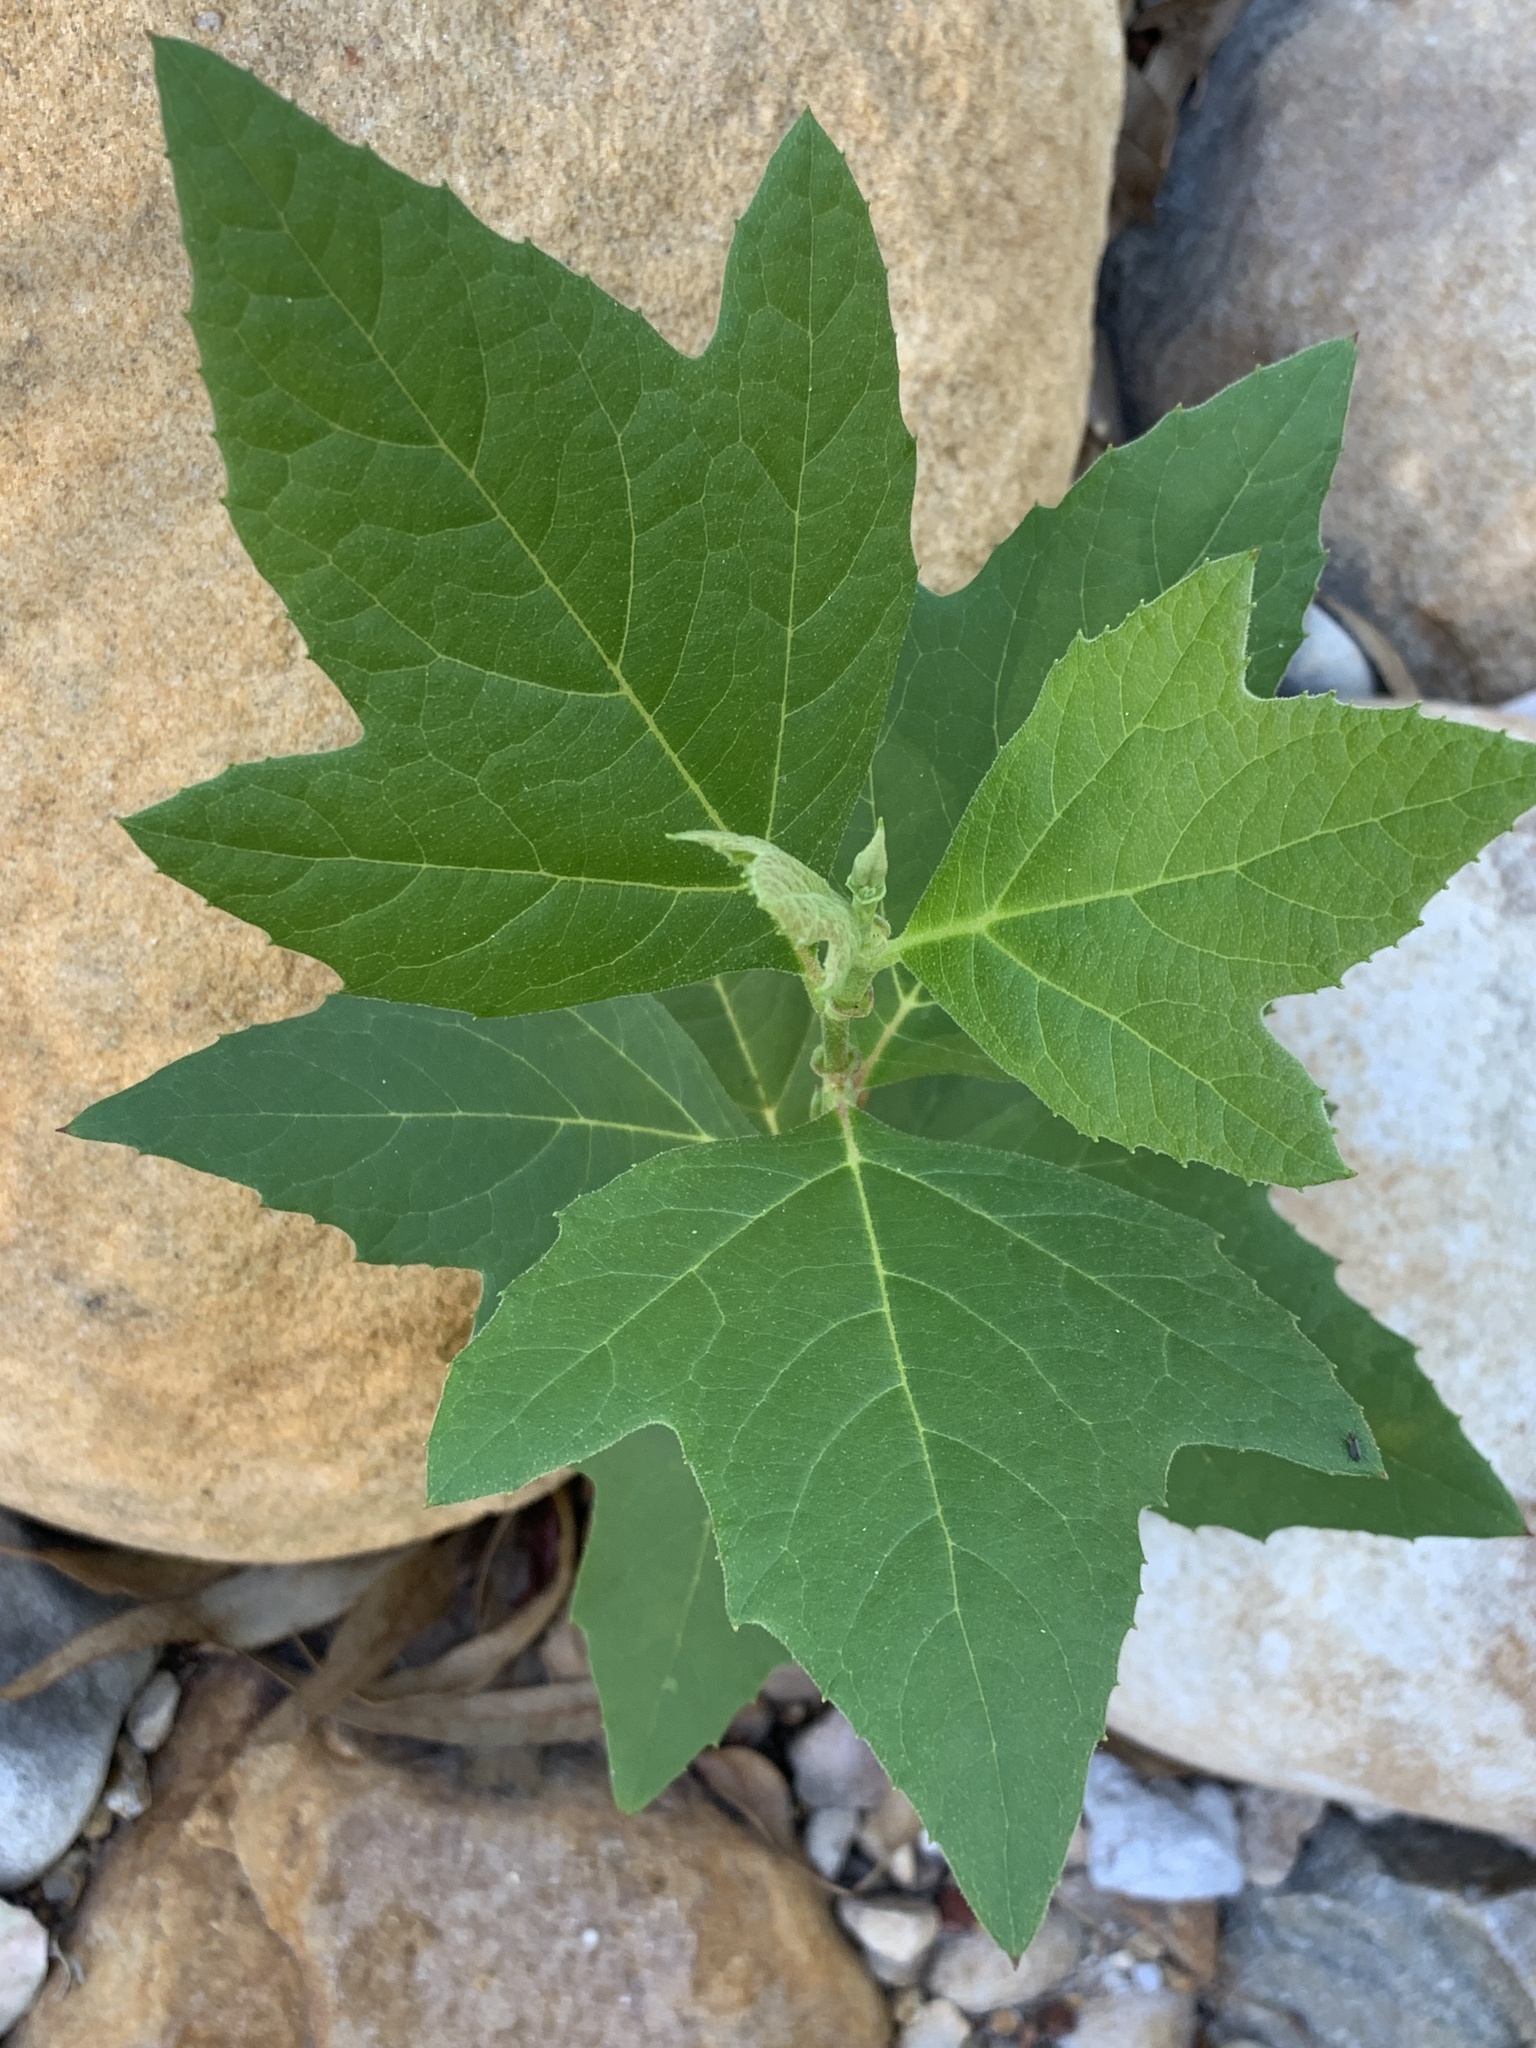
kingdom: Plantae
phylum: Tracheophyta
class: Magnoliopsida
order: Proteales
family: Platanaceae
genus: Platanus
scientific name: Platanus hispanica
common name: London plane
